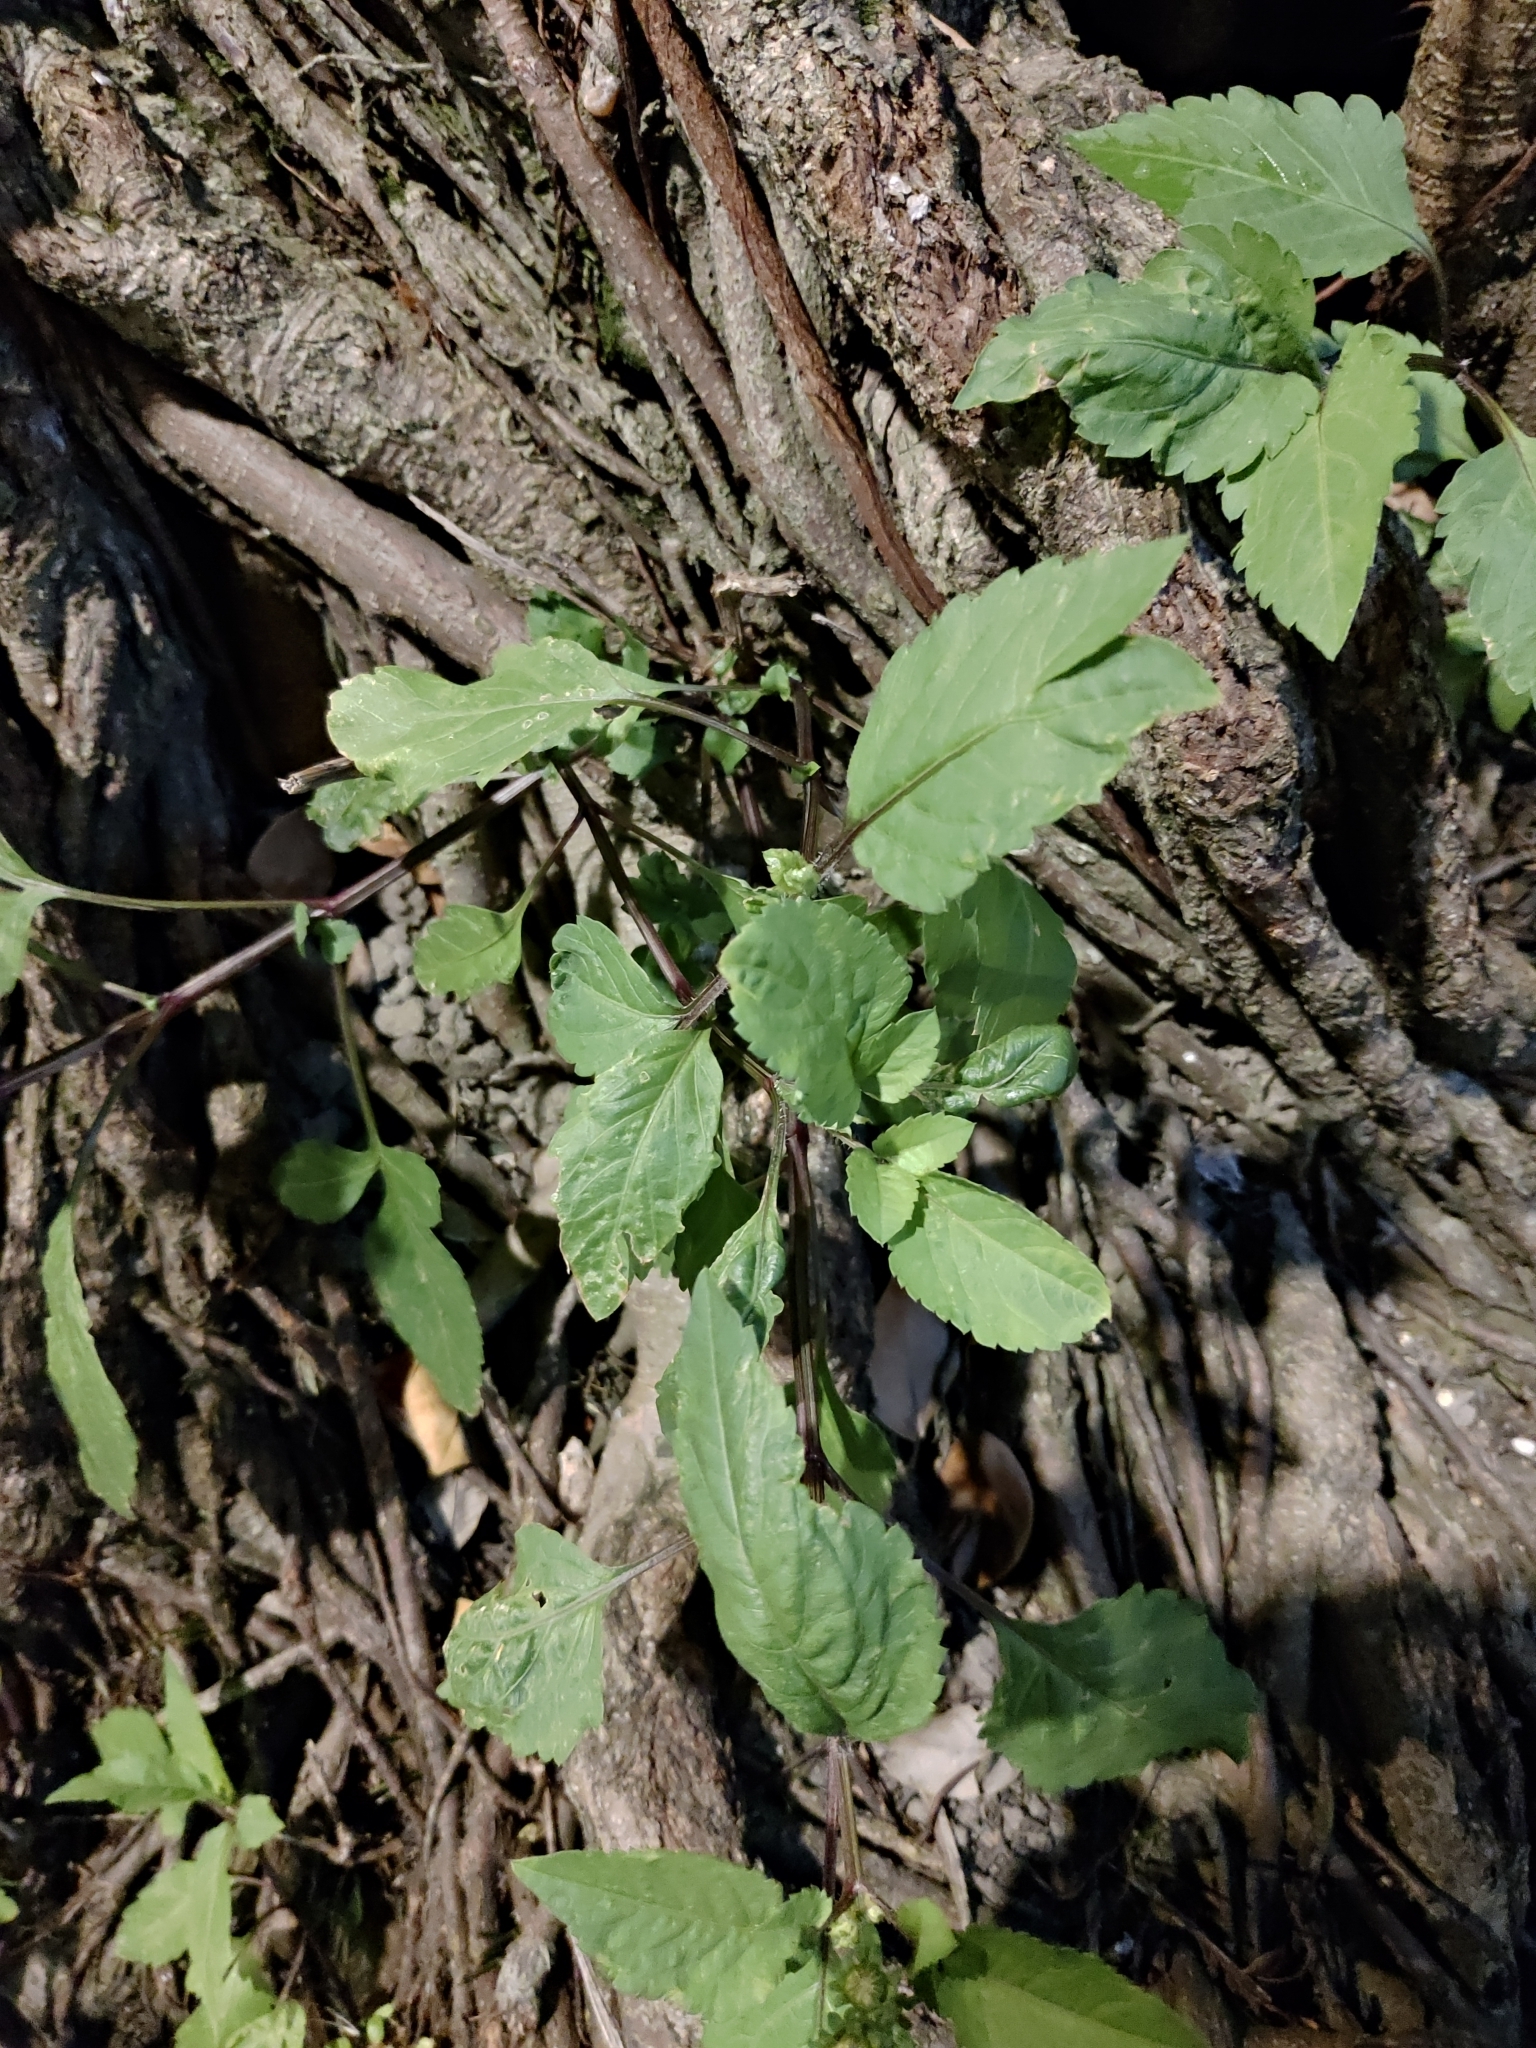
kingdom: Plantae
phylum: Tracheophyta
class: Magnoliopsida
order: Asterales
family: Asteraceae
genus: Bidens
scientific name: Bidens alba
